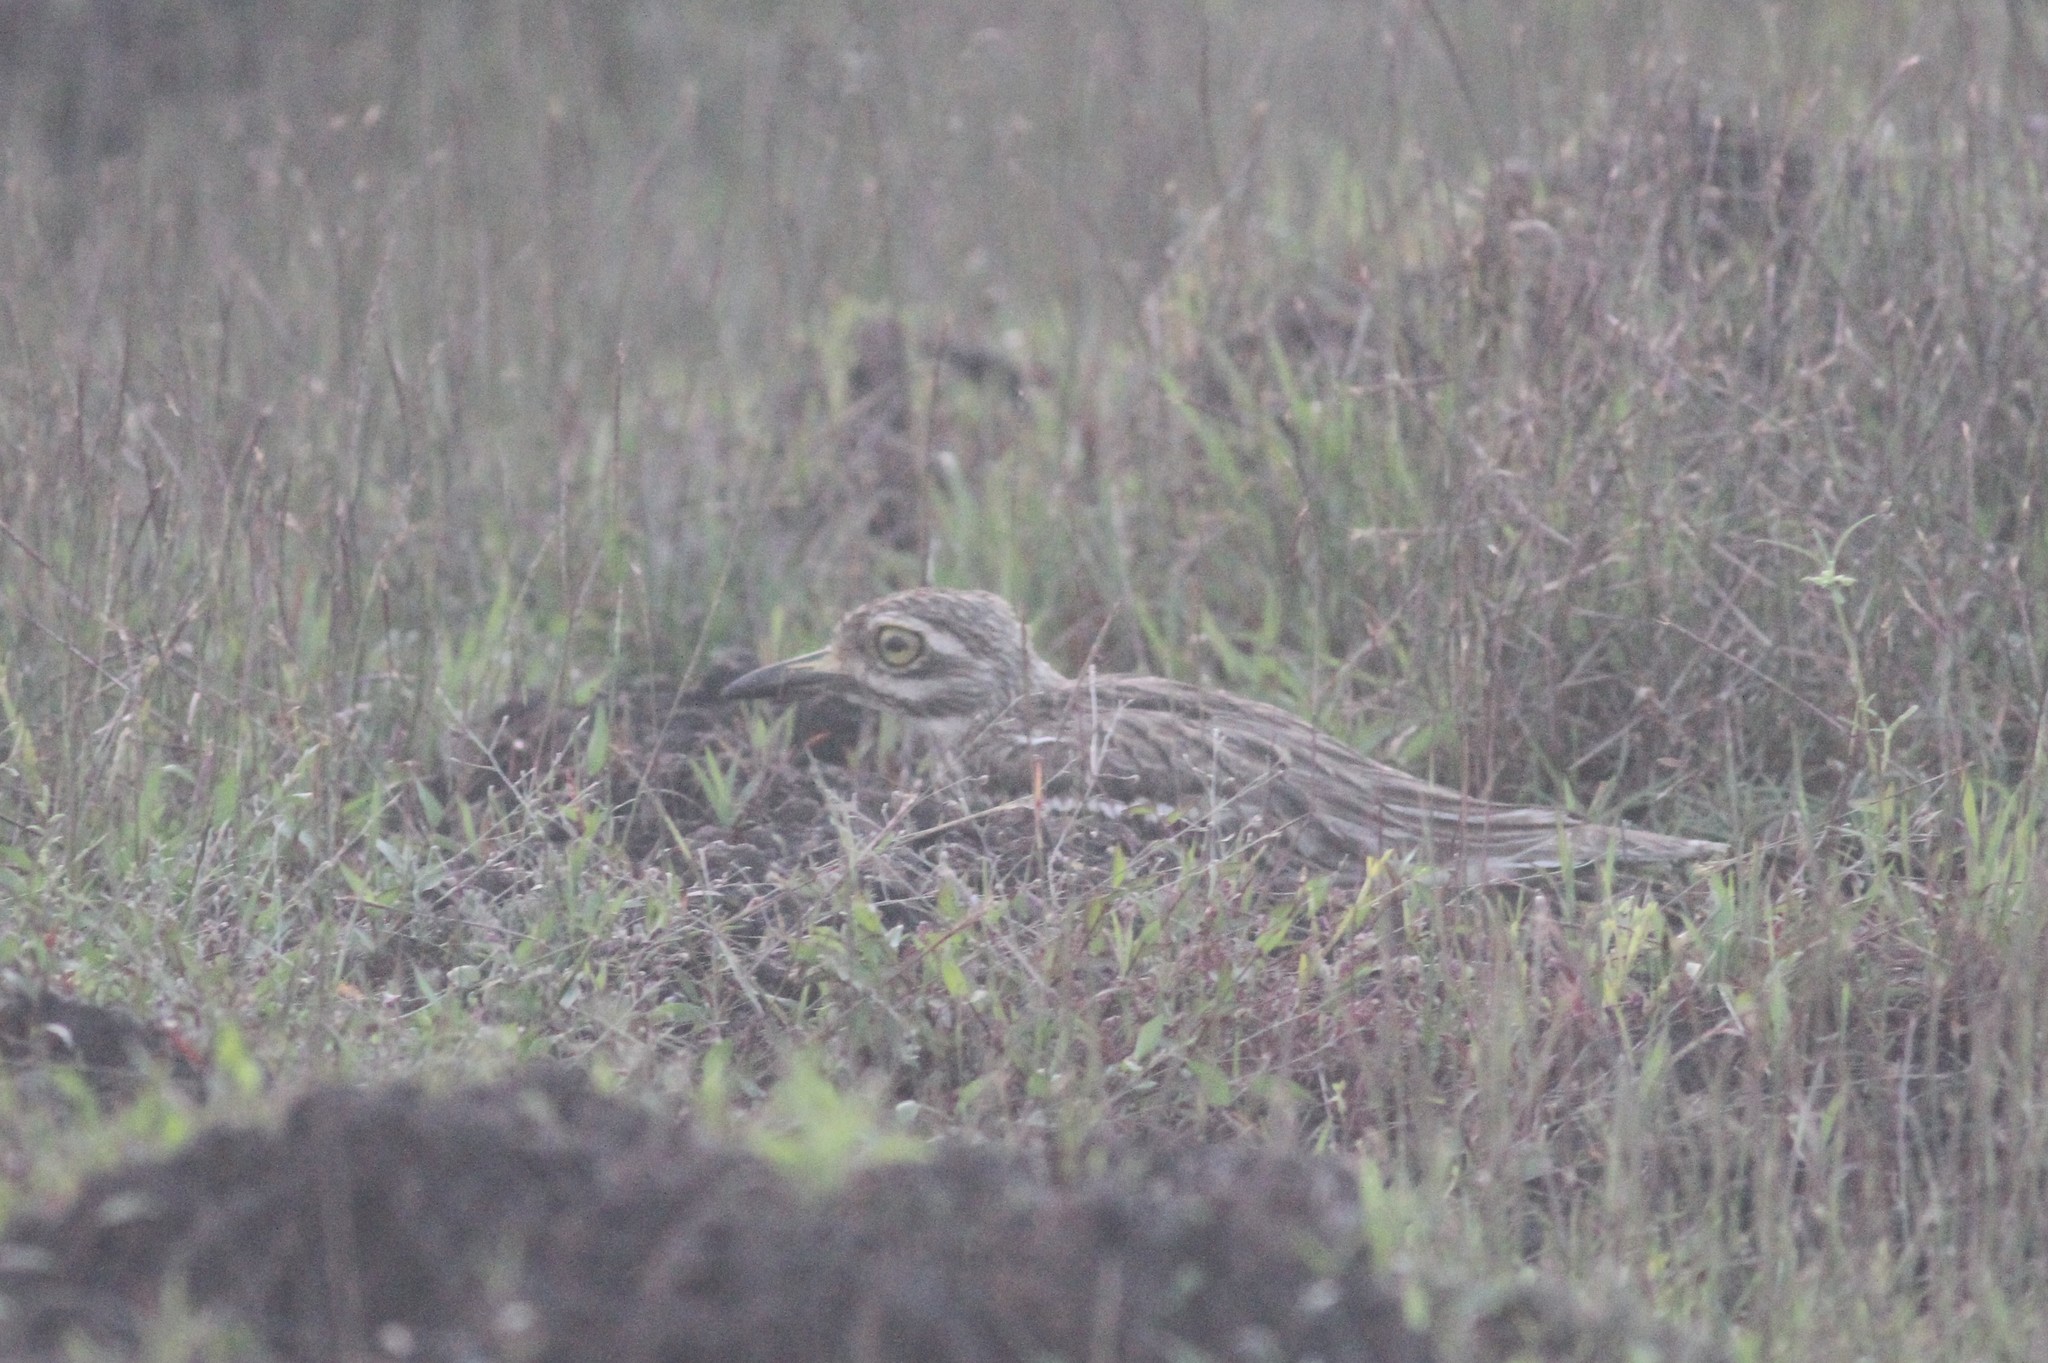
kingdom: Animalia
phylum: Chordata
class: Aves
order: Charadriiformes
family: Burhinidae
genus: Burhinus
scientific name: Burhinus indicus
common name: Indian thick-knee
